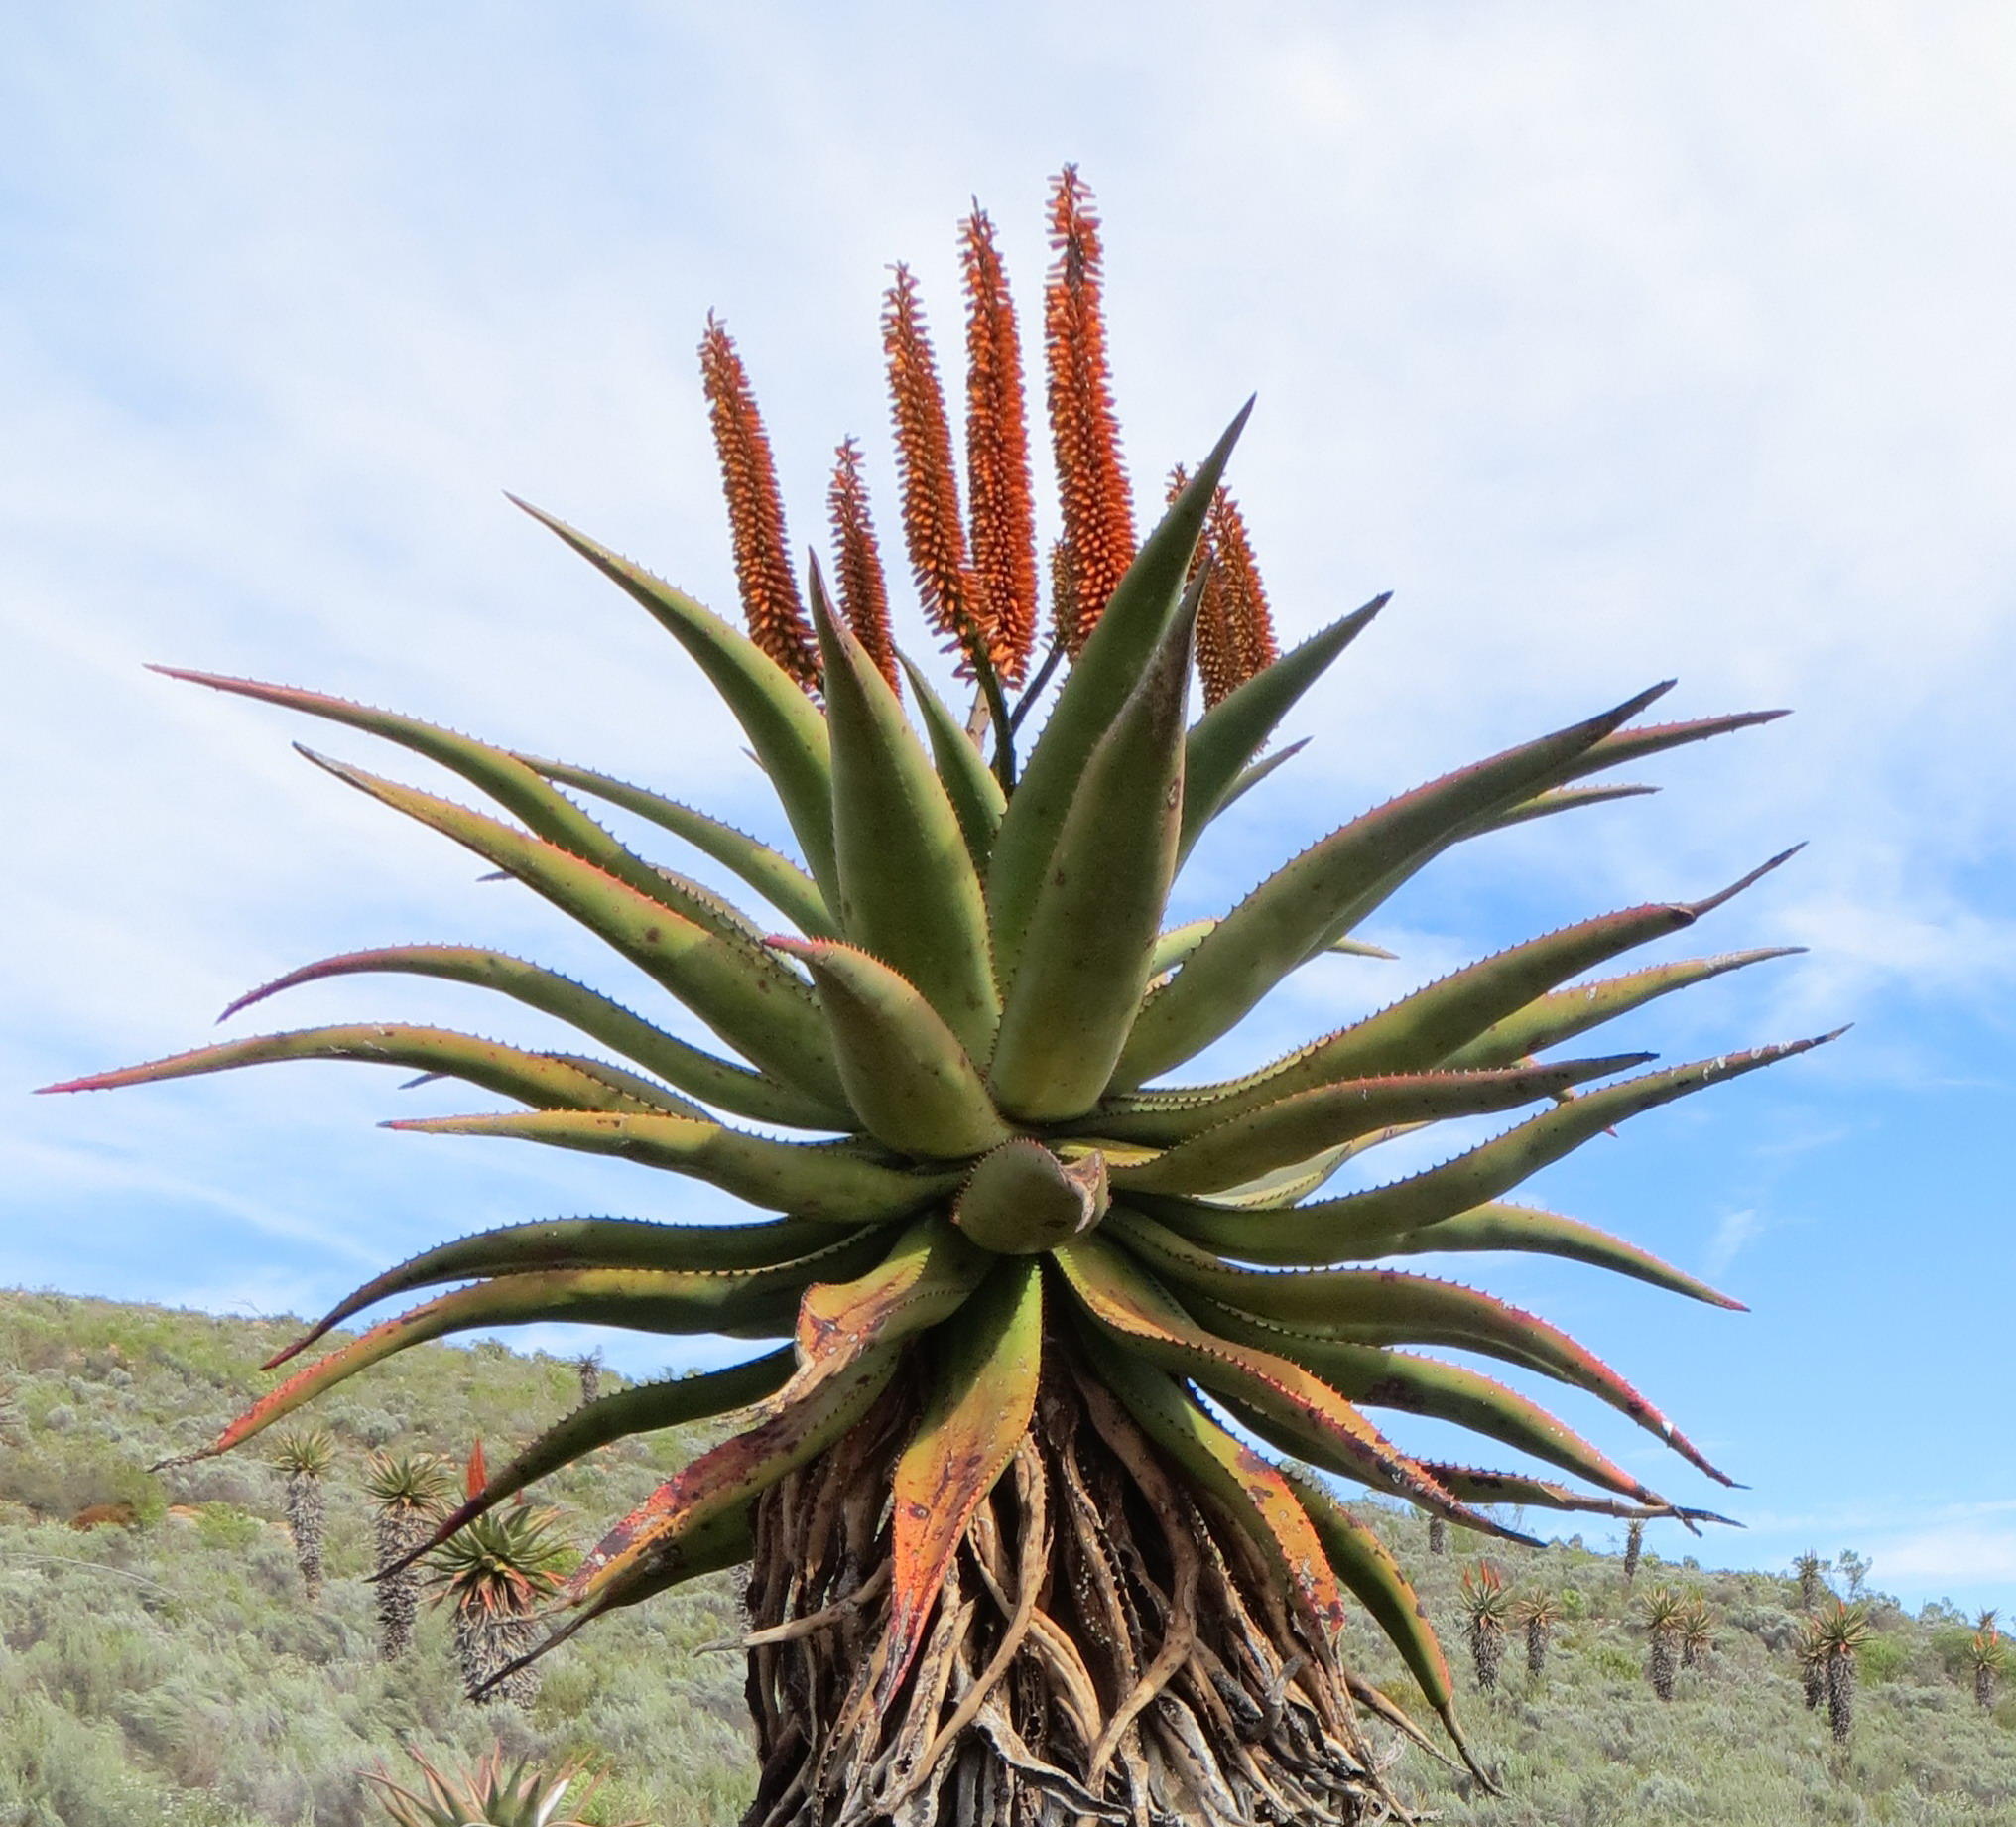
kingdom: Plantae
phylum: Tracheophyta
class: Liliopsida
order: Asparagales
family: Asphodelaceae
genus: Aloe
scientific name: Aloe ferox
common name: Bitter aloe
